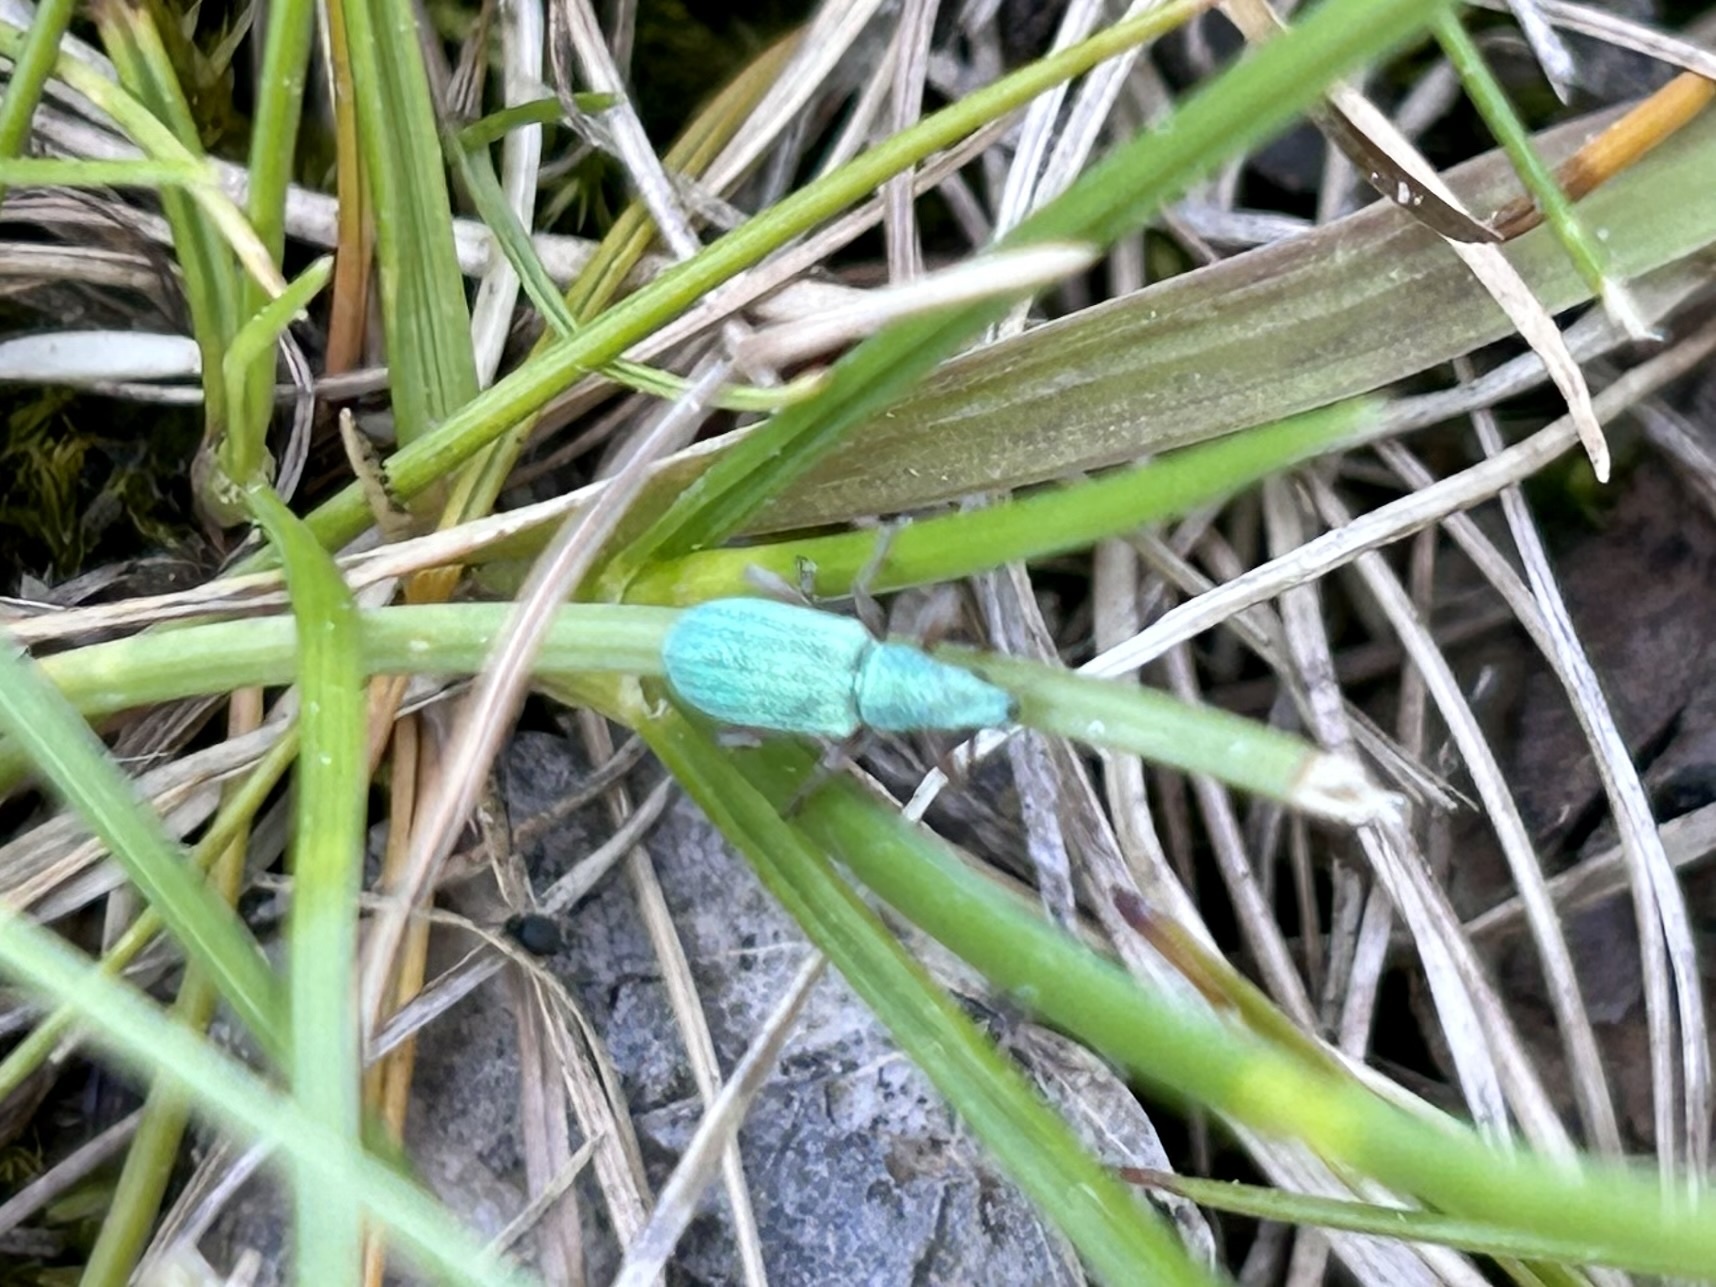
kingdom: Animalia
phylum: Arthropoda
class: Insecta
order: Coleoptera
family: Curculionidae
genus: Polydrusus
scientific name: Polydrusus impressifrons
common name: Weevil
